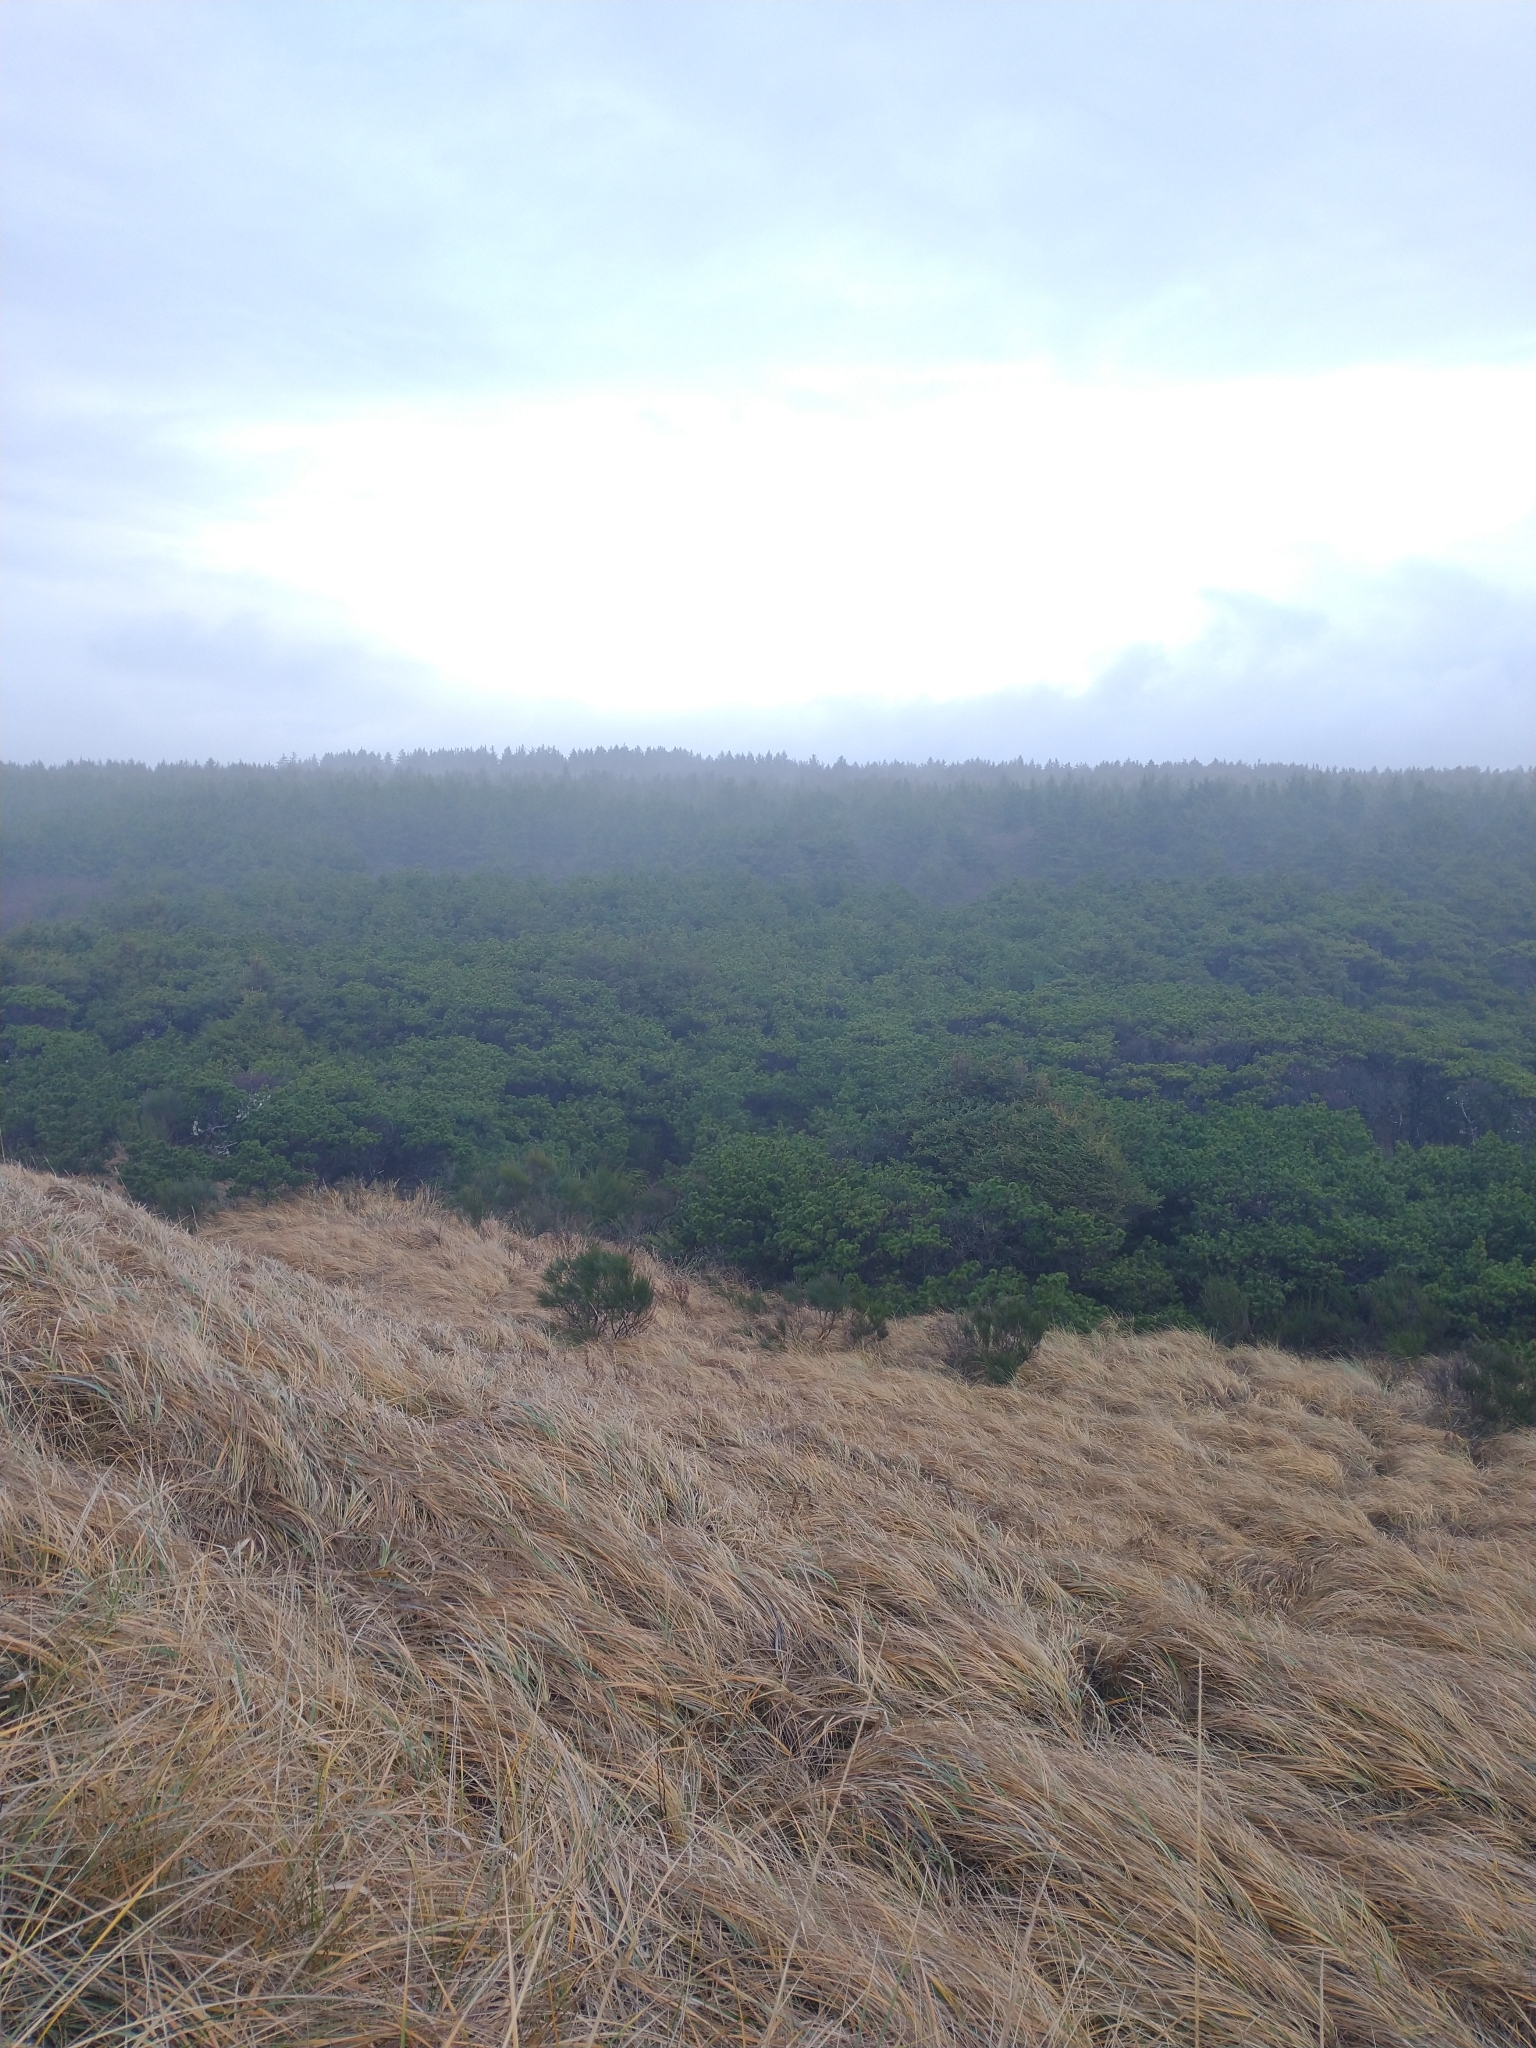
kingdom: Plantae
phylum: Tracheophyta
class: Pinopsida
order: Pinales
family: Pinaceae
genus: Pinus
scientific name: Pinus contorta
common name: Lodgepole pine
